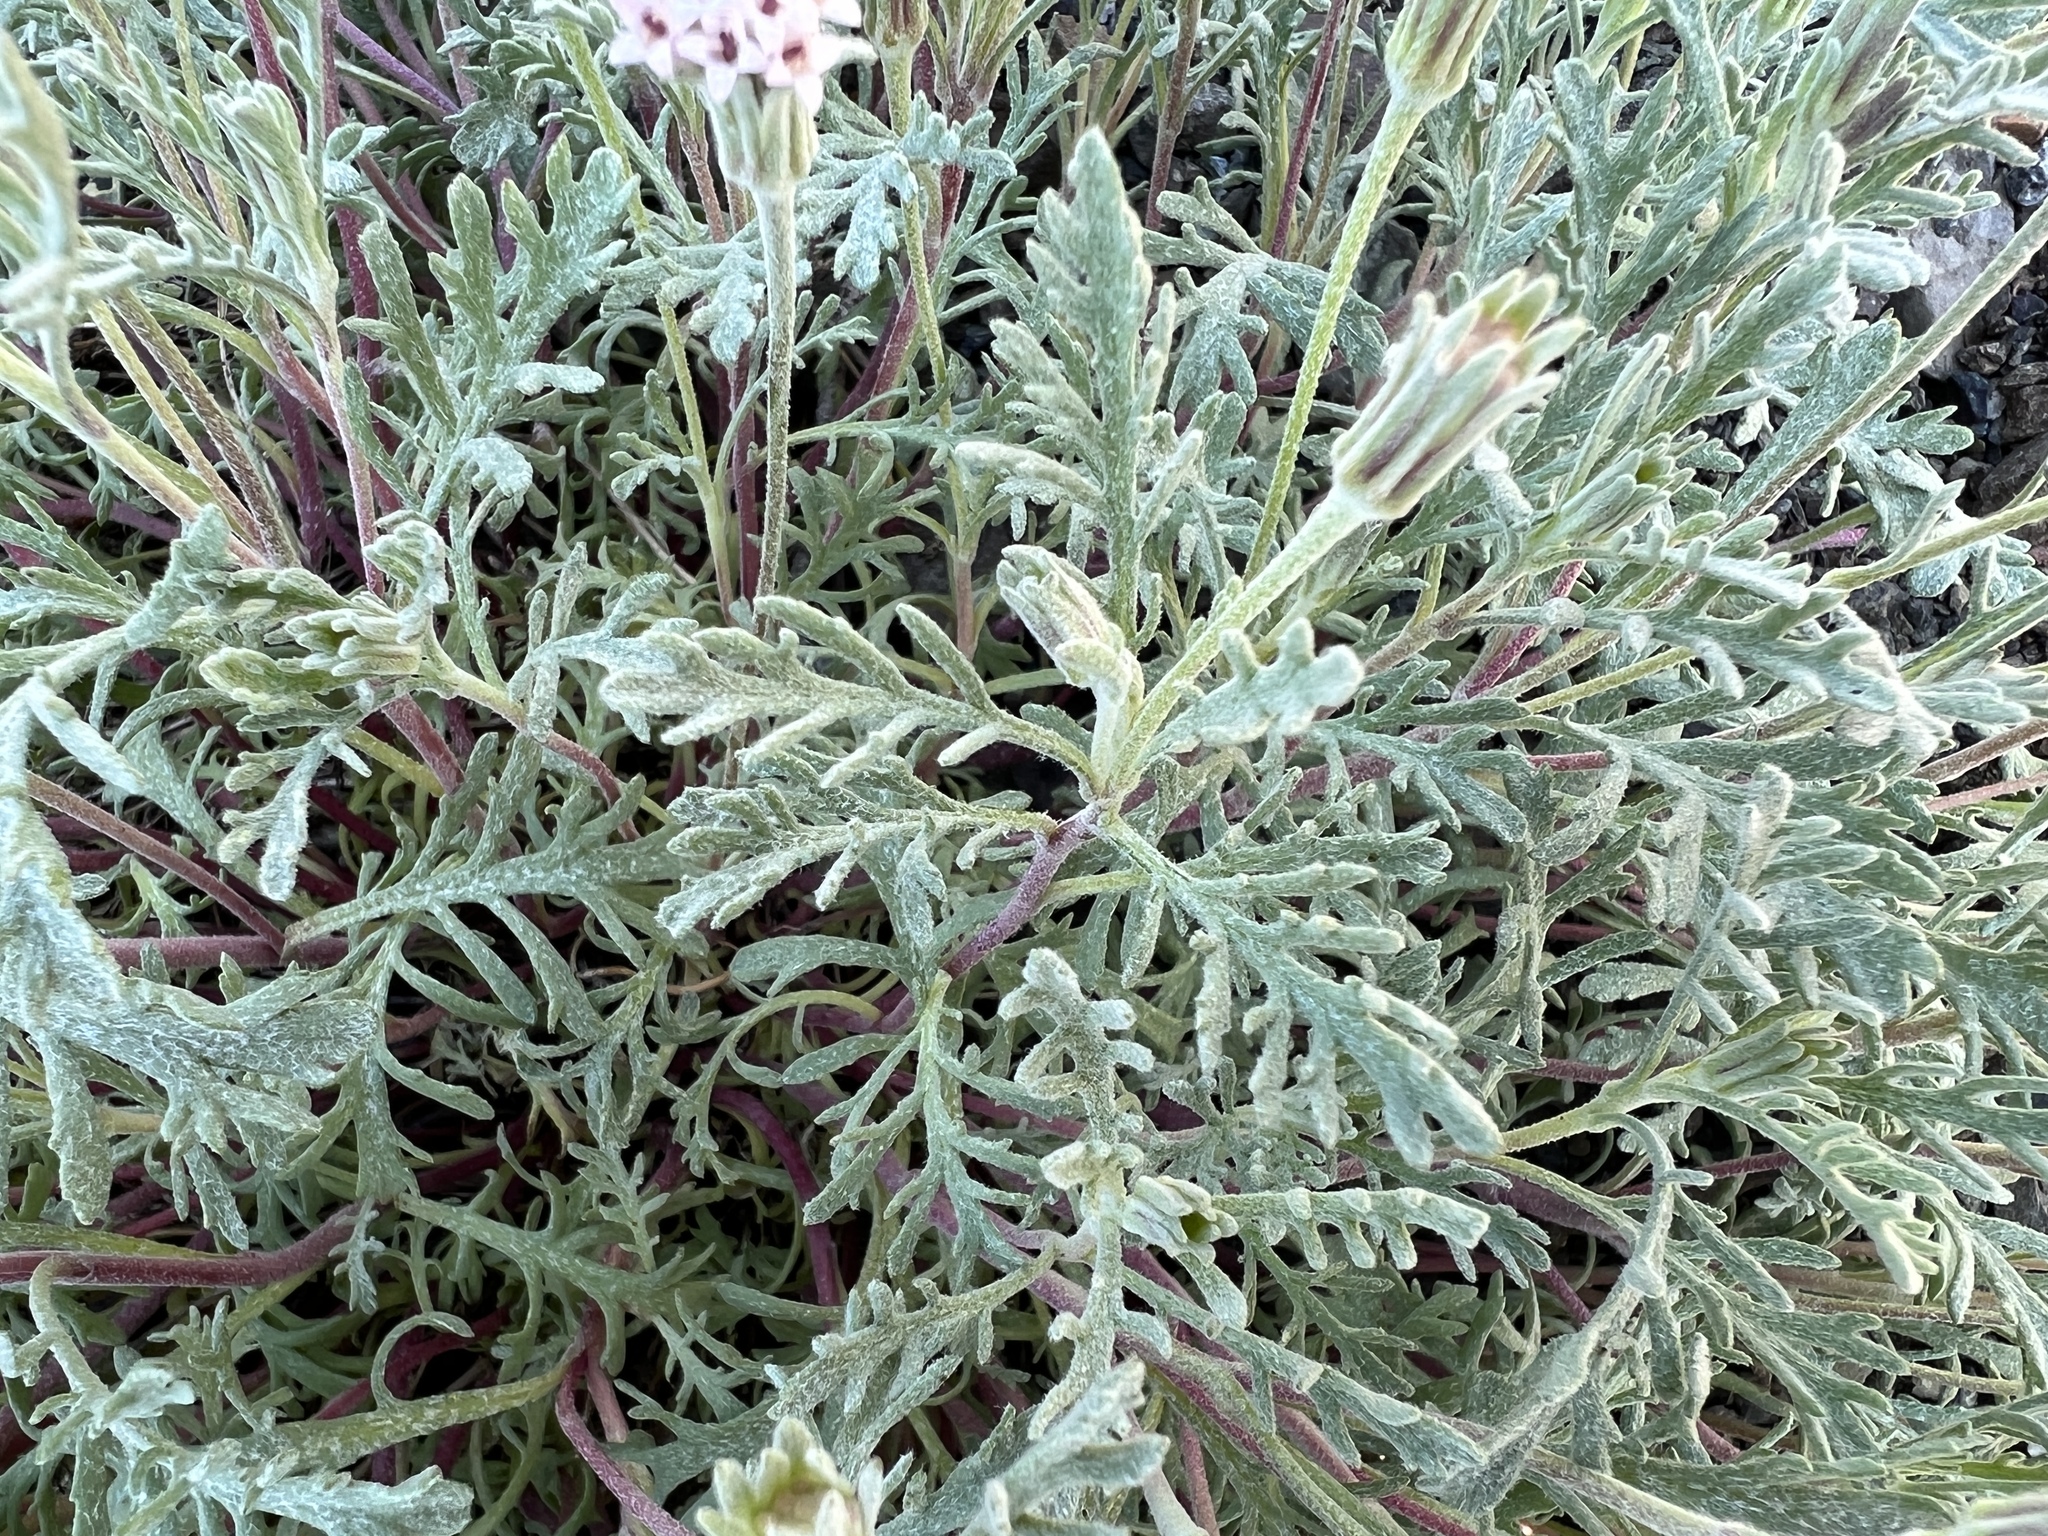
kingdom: Plantae
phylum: Tracheophyta
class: Magnoliopsida
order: Asterales
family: Asteraceae
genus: Chaenactis
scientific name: Chaenactis thompsonii
